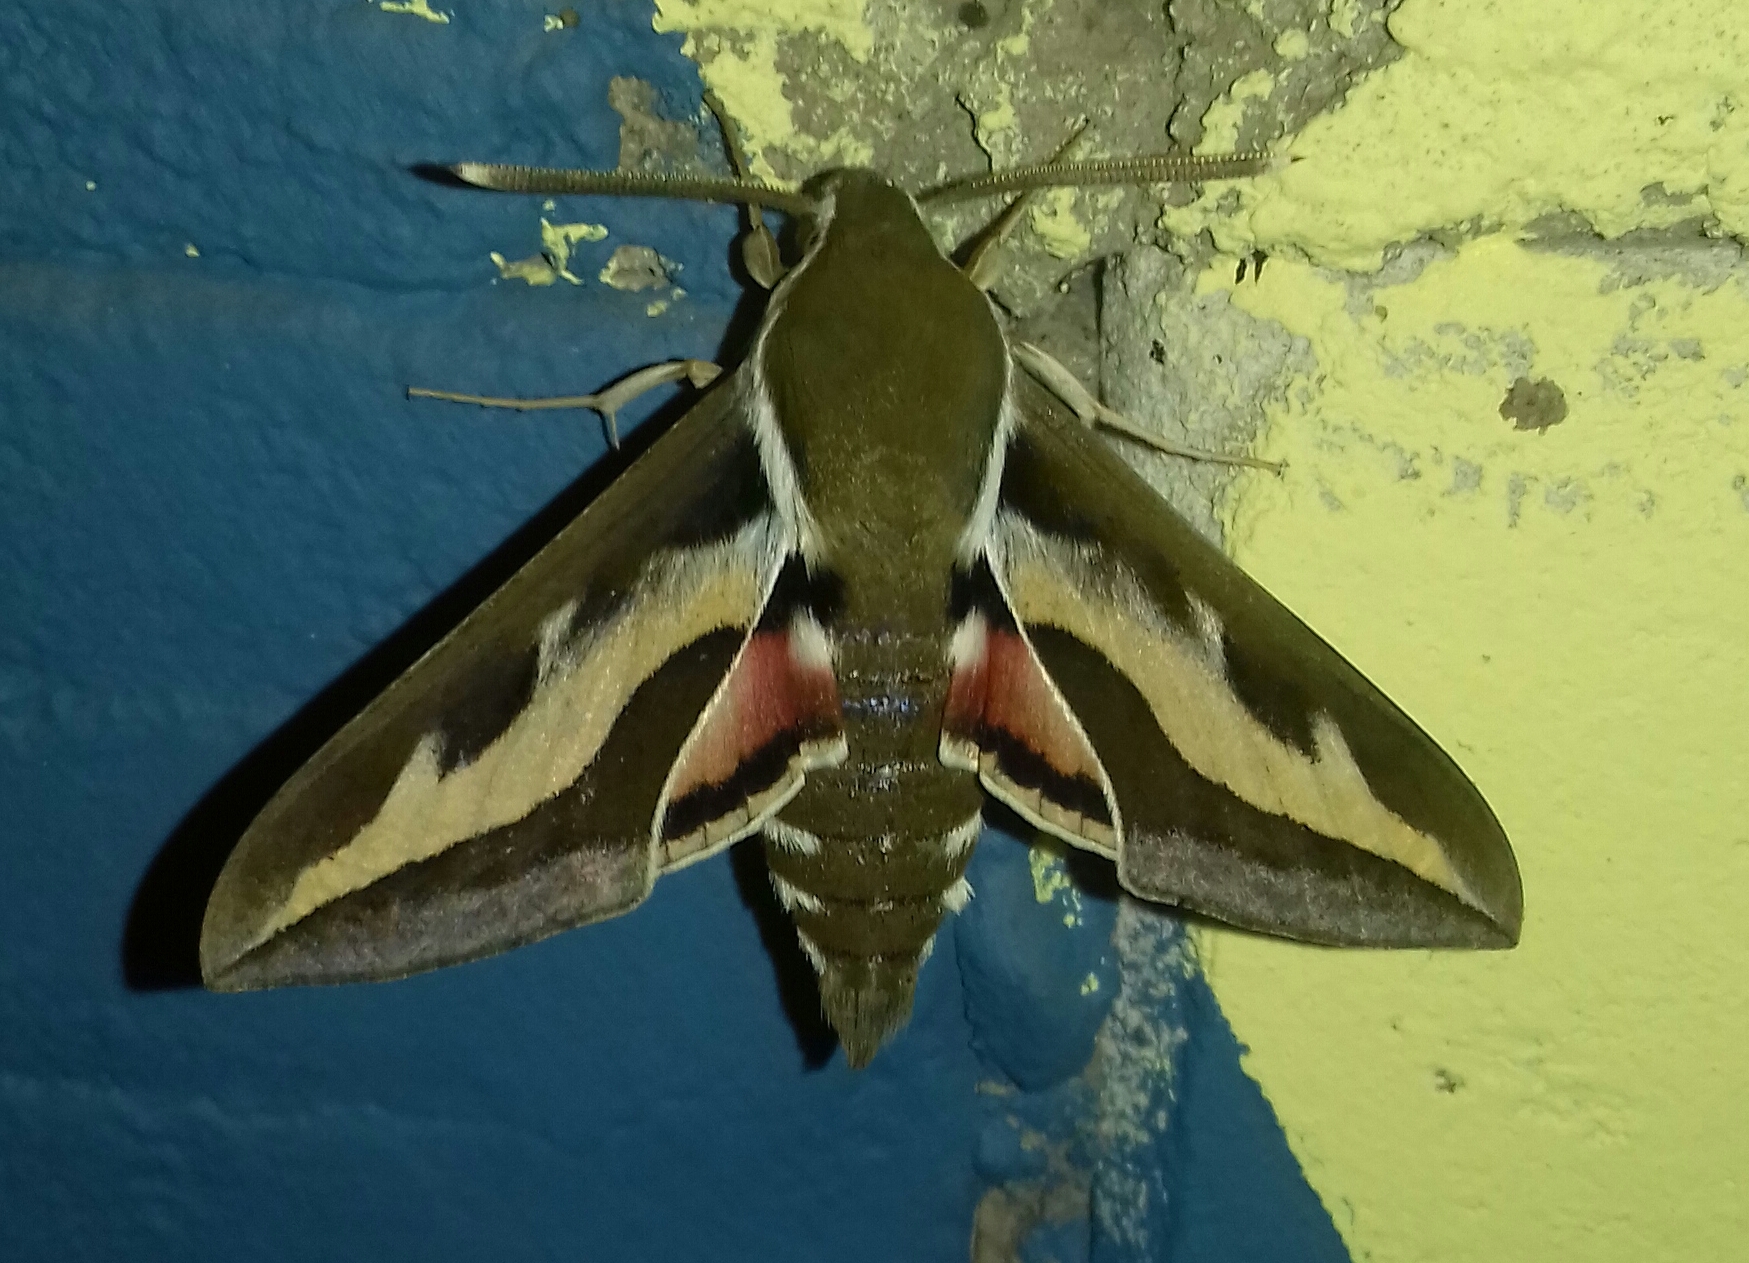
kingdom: Animalia
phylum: Arthropoda
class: Insecta
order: Lepidoptera
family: Sphingidae
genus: Hyles
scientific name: Hyles gallii
